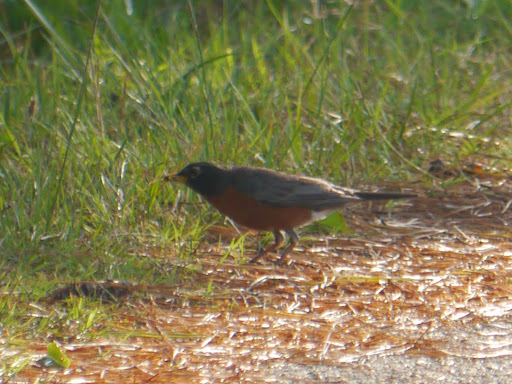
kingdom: Animalia
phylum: Chordata
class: Aves
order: Passeriformes
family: Turdidae
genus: Turdus
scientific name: Turdus migratorius
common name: American robin
